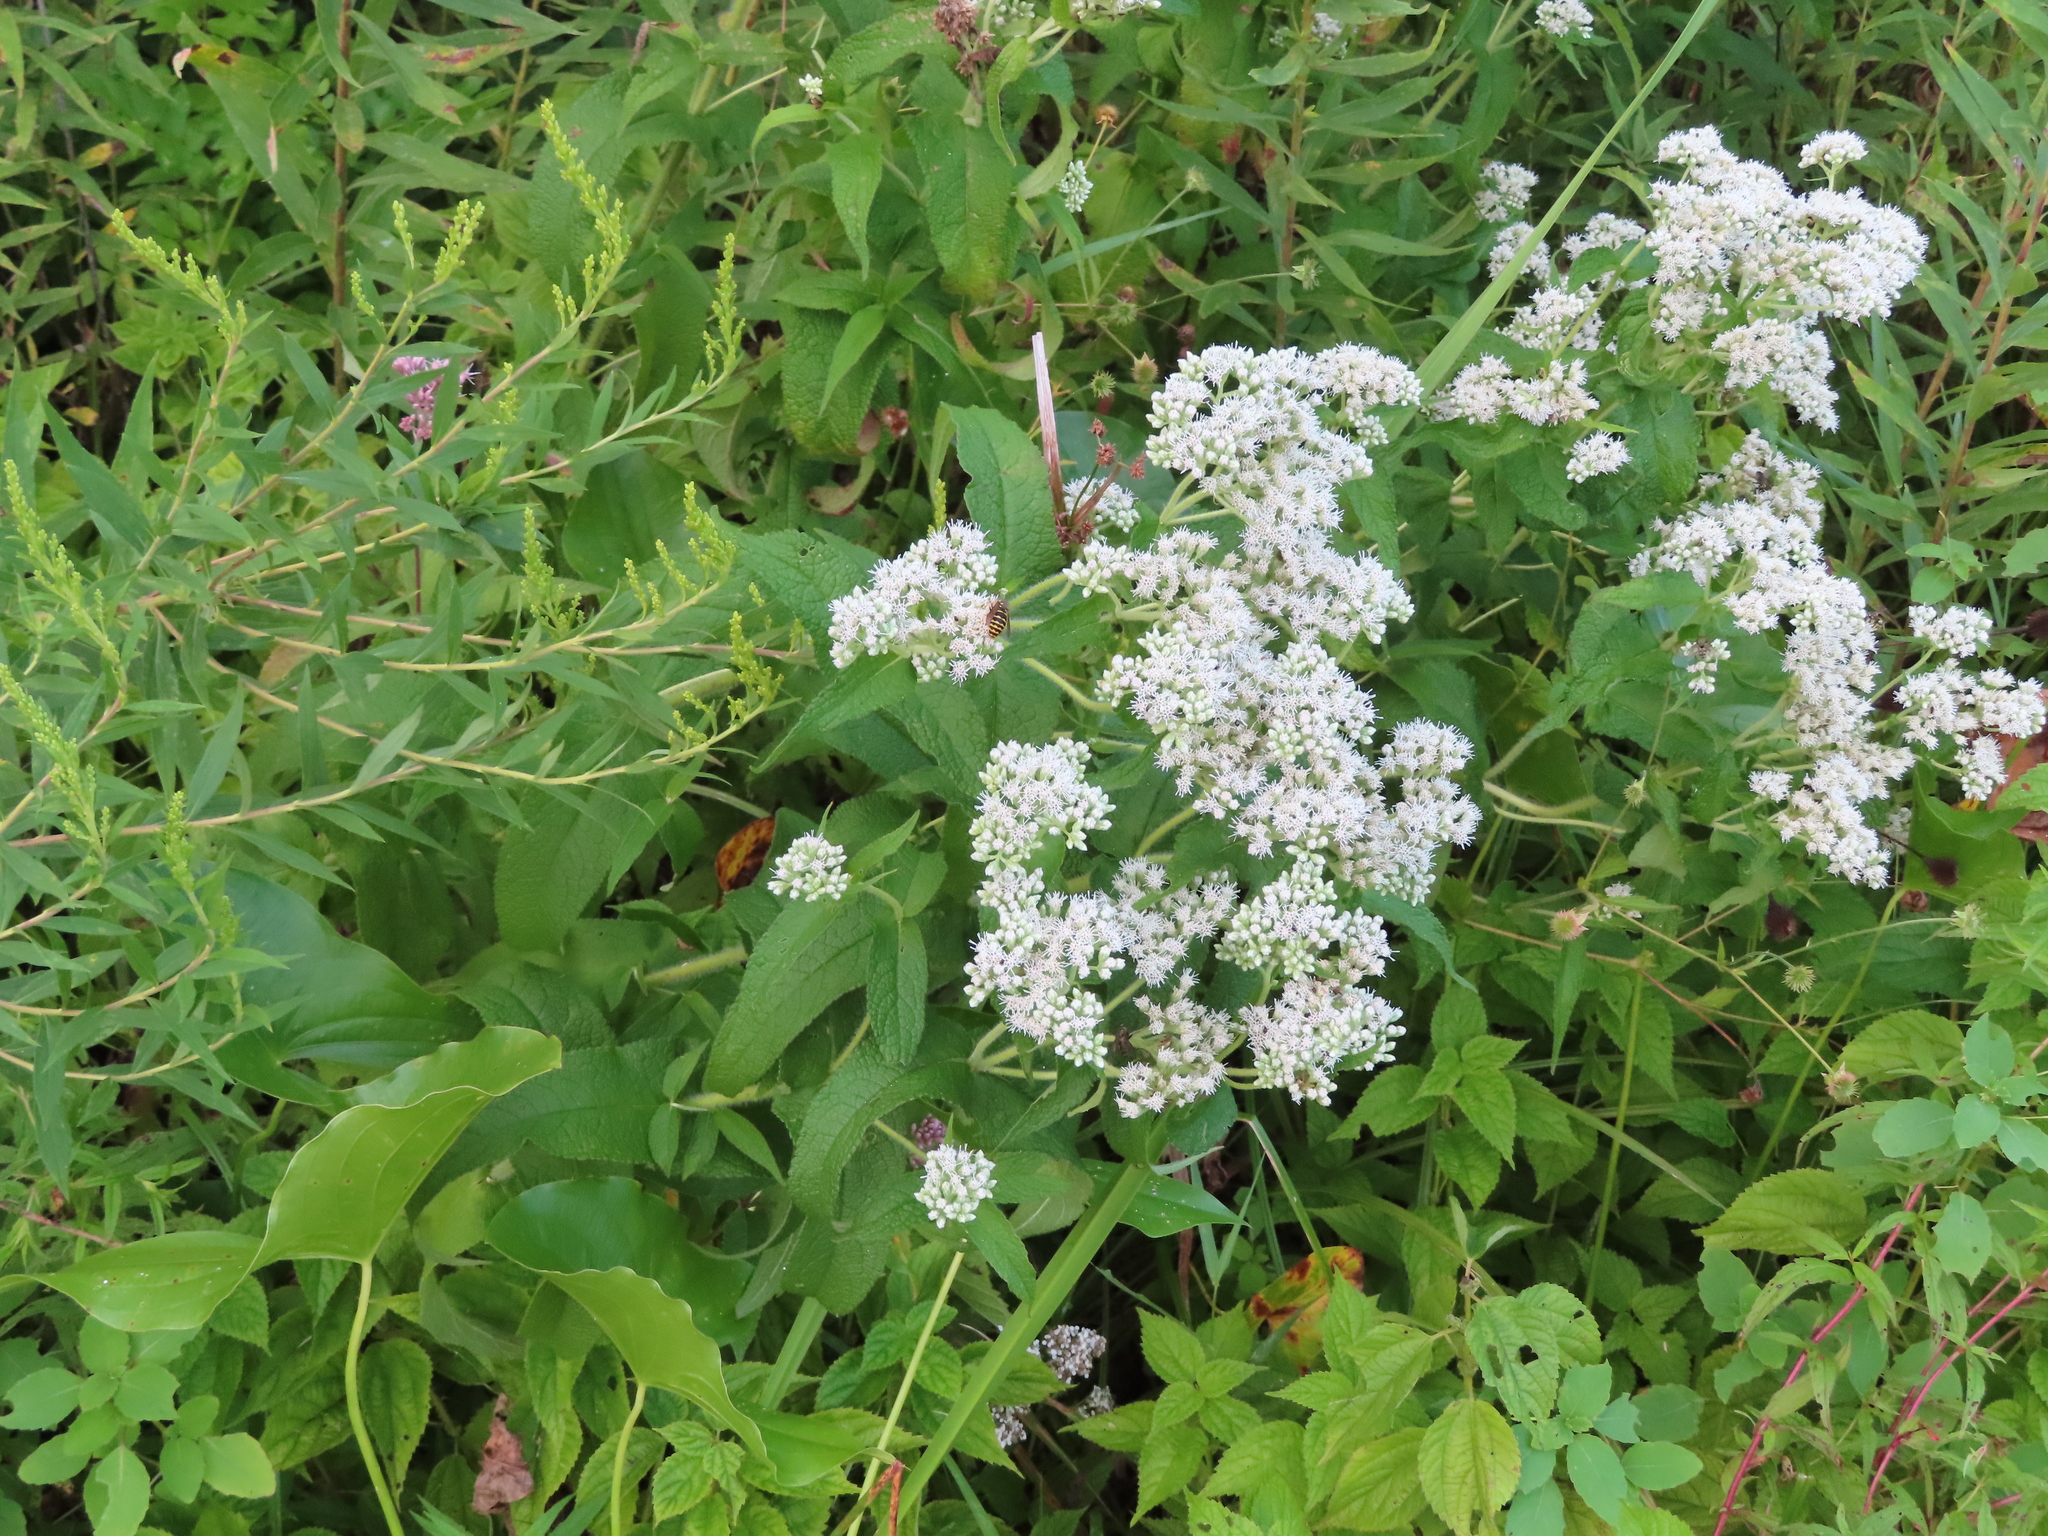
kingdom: Plantae
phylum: Tracheophyta
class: Magnoliopsida
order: Asterales
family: Asteraceae
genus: Eupatorium
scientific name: Eupatorium perfoliatum
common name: Boneset
